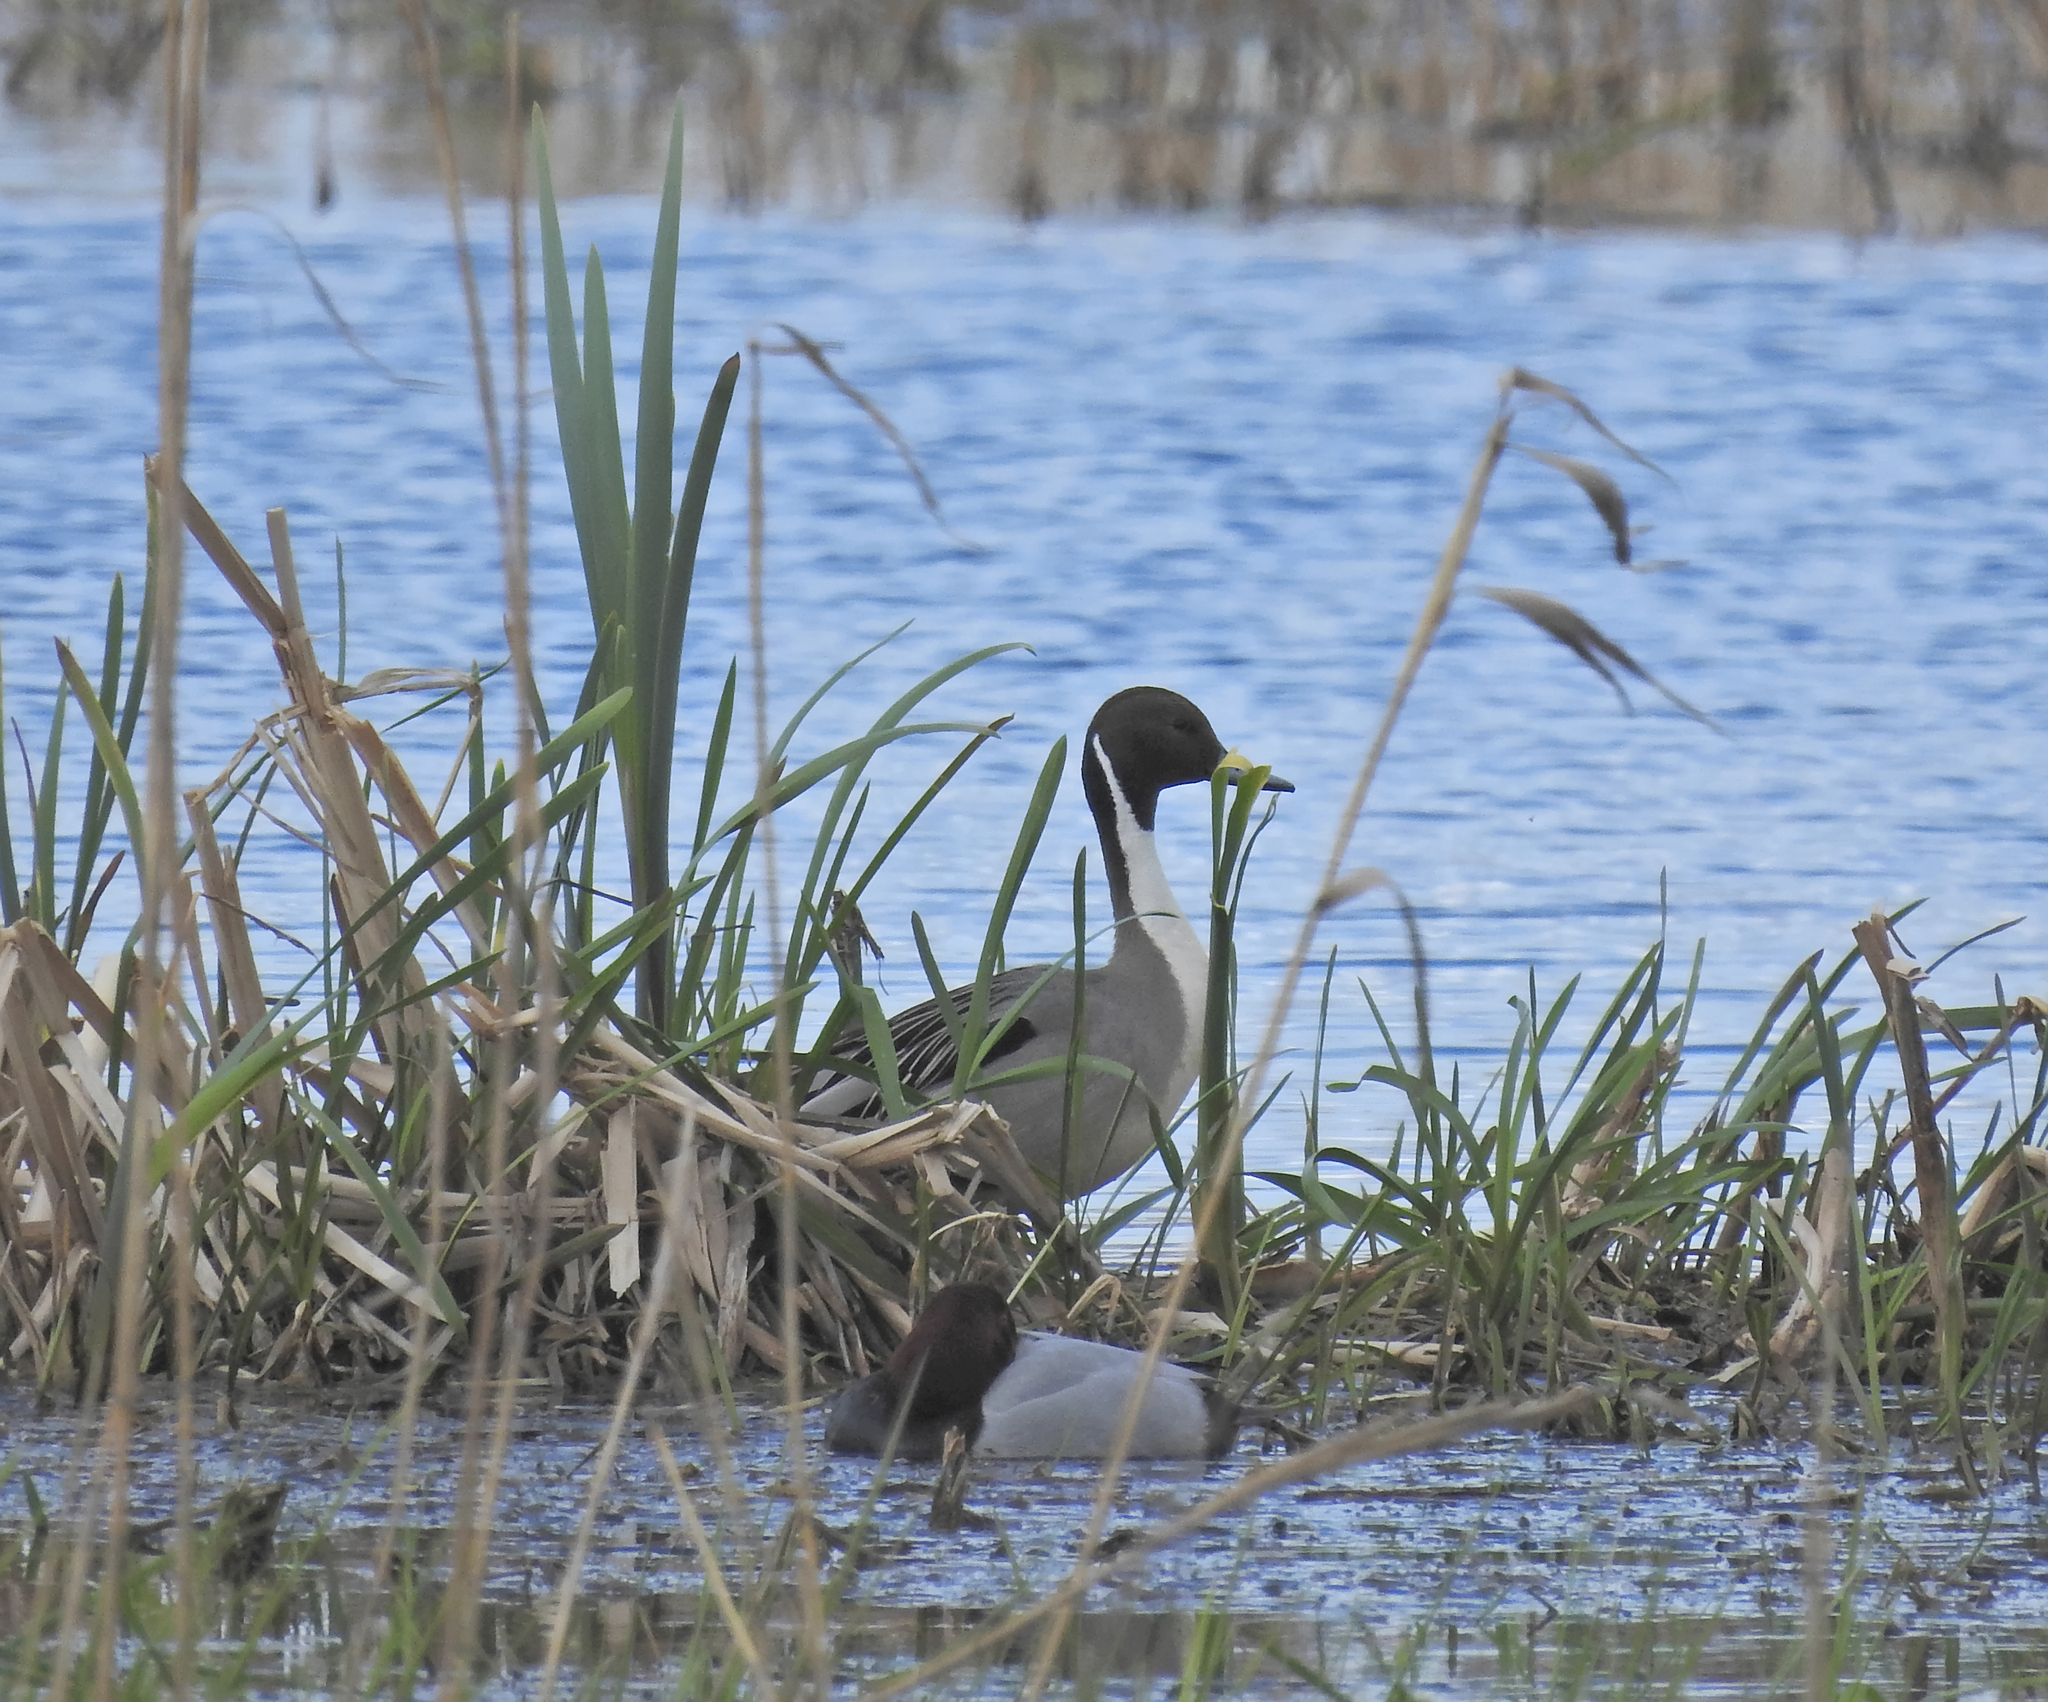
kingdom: Animalia
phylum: Chordata
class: Aves
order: Anseriformes
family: Anatidae
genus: Anas
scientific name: Anas acuta
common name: Northern pintail
